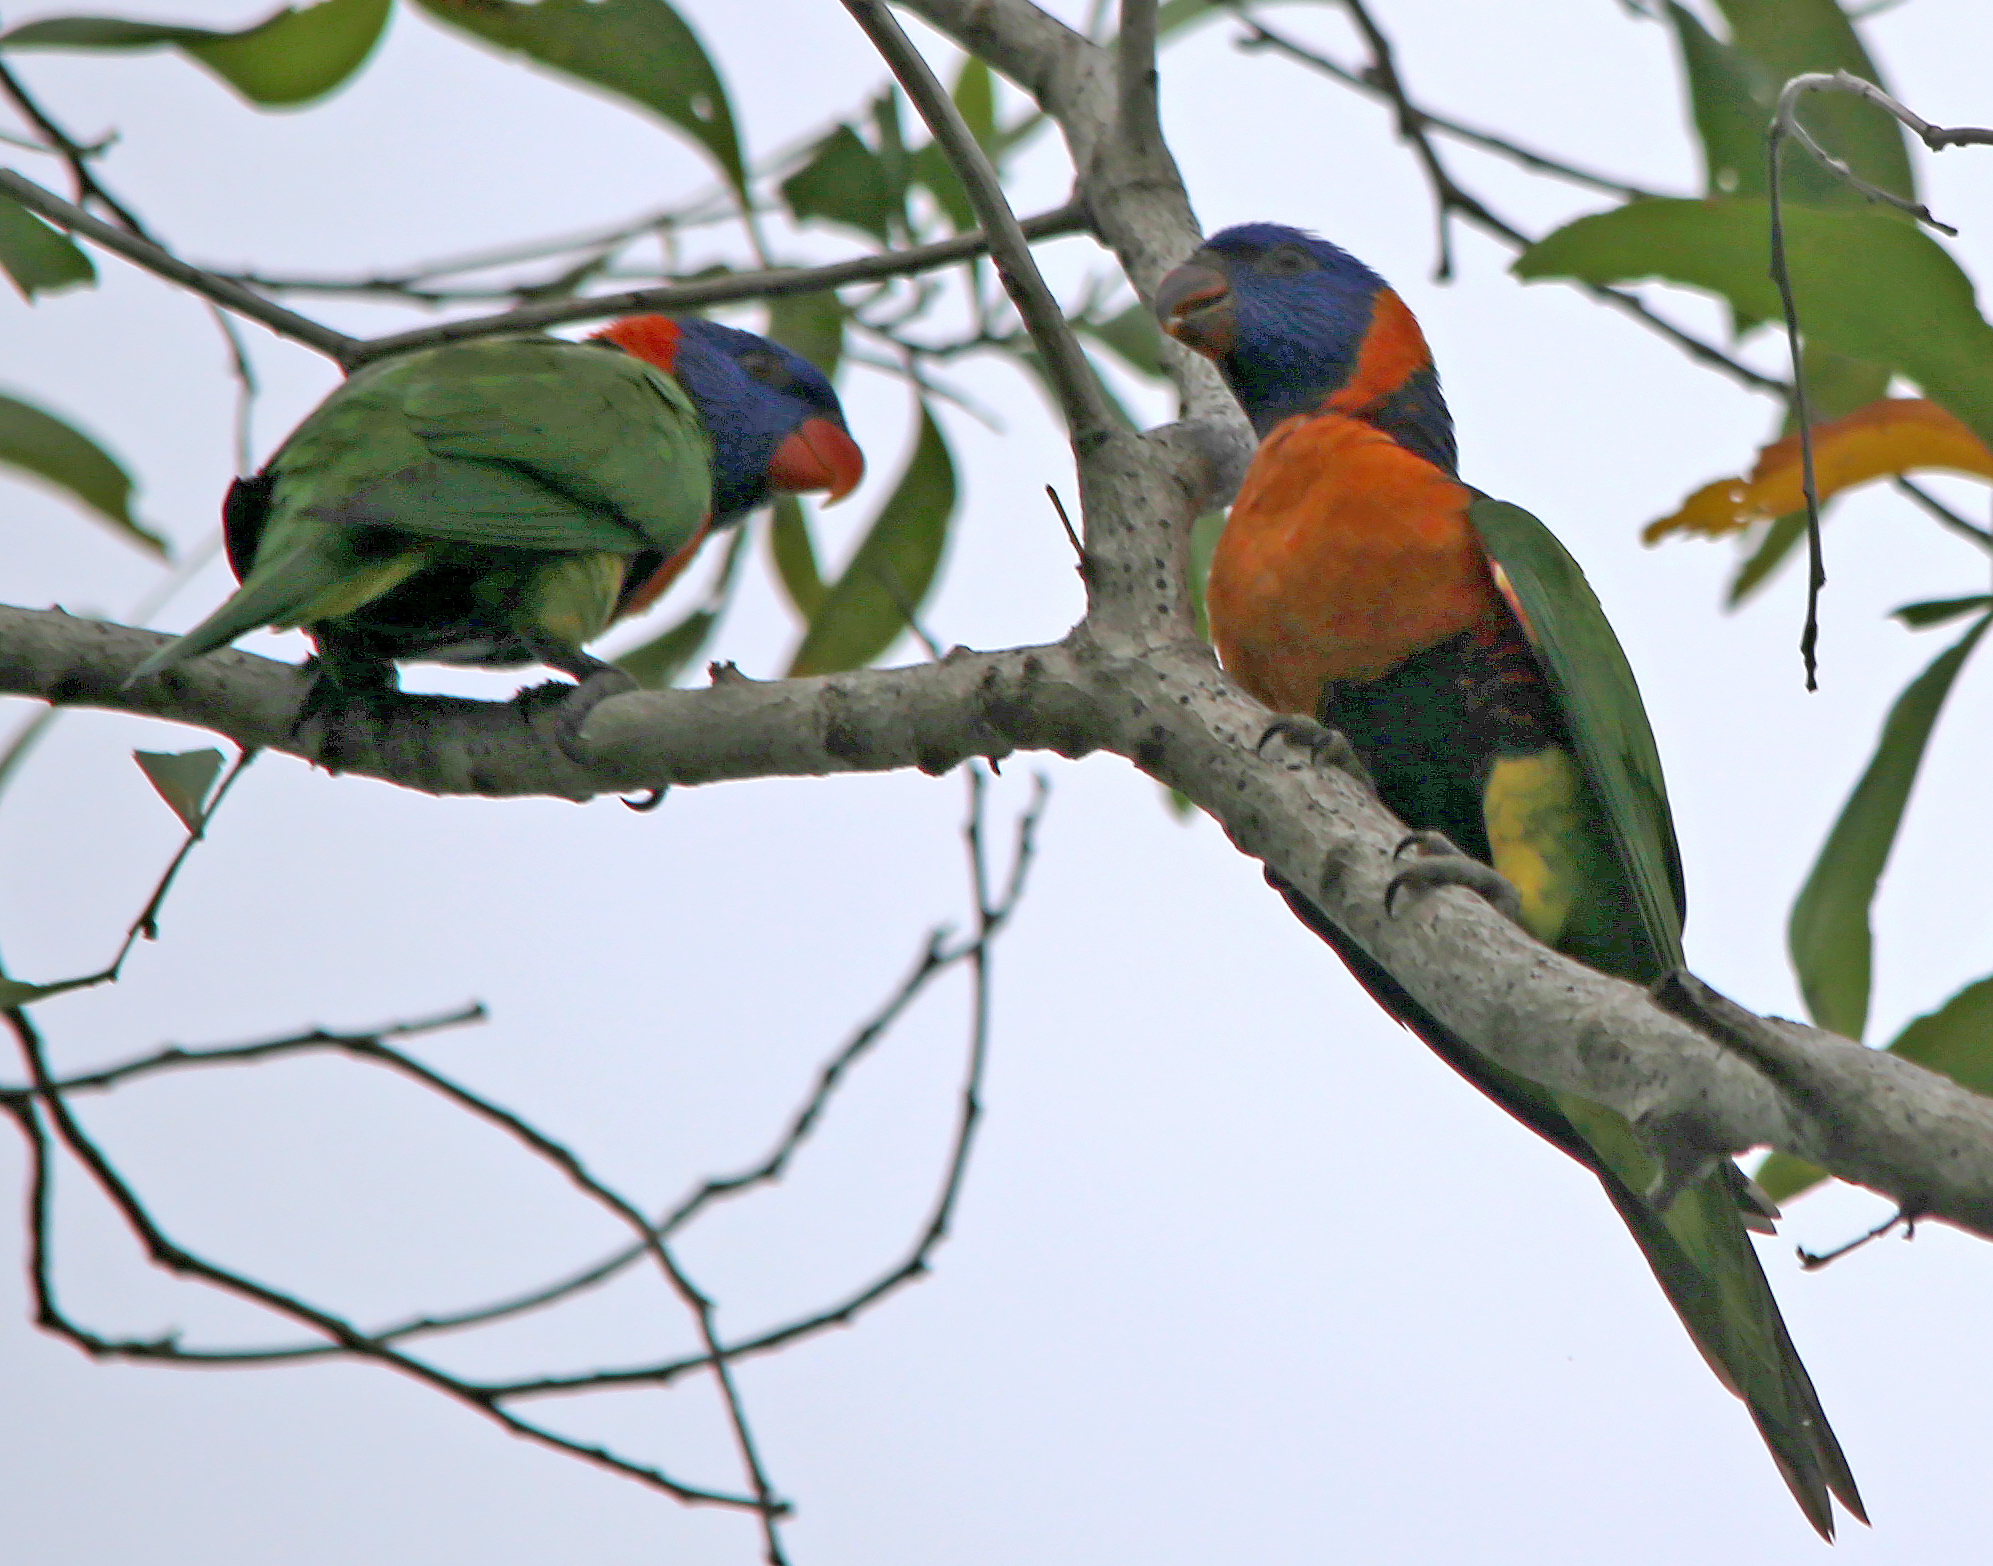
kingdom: Animalia
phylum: Chordata
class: Aves
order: Psittaciformes
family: Psittacidae
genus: Trichoglossus
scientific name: Trichoglossus rubritorquis
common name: Red-collared lorikeet
